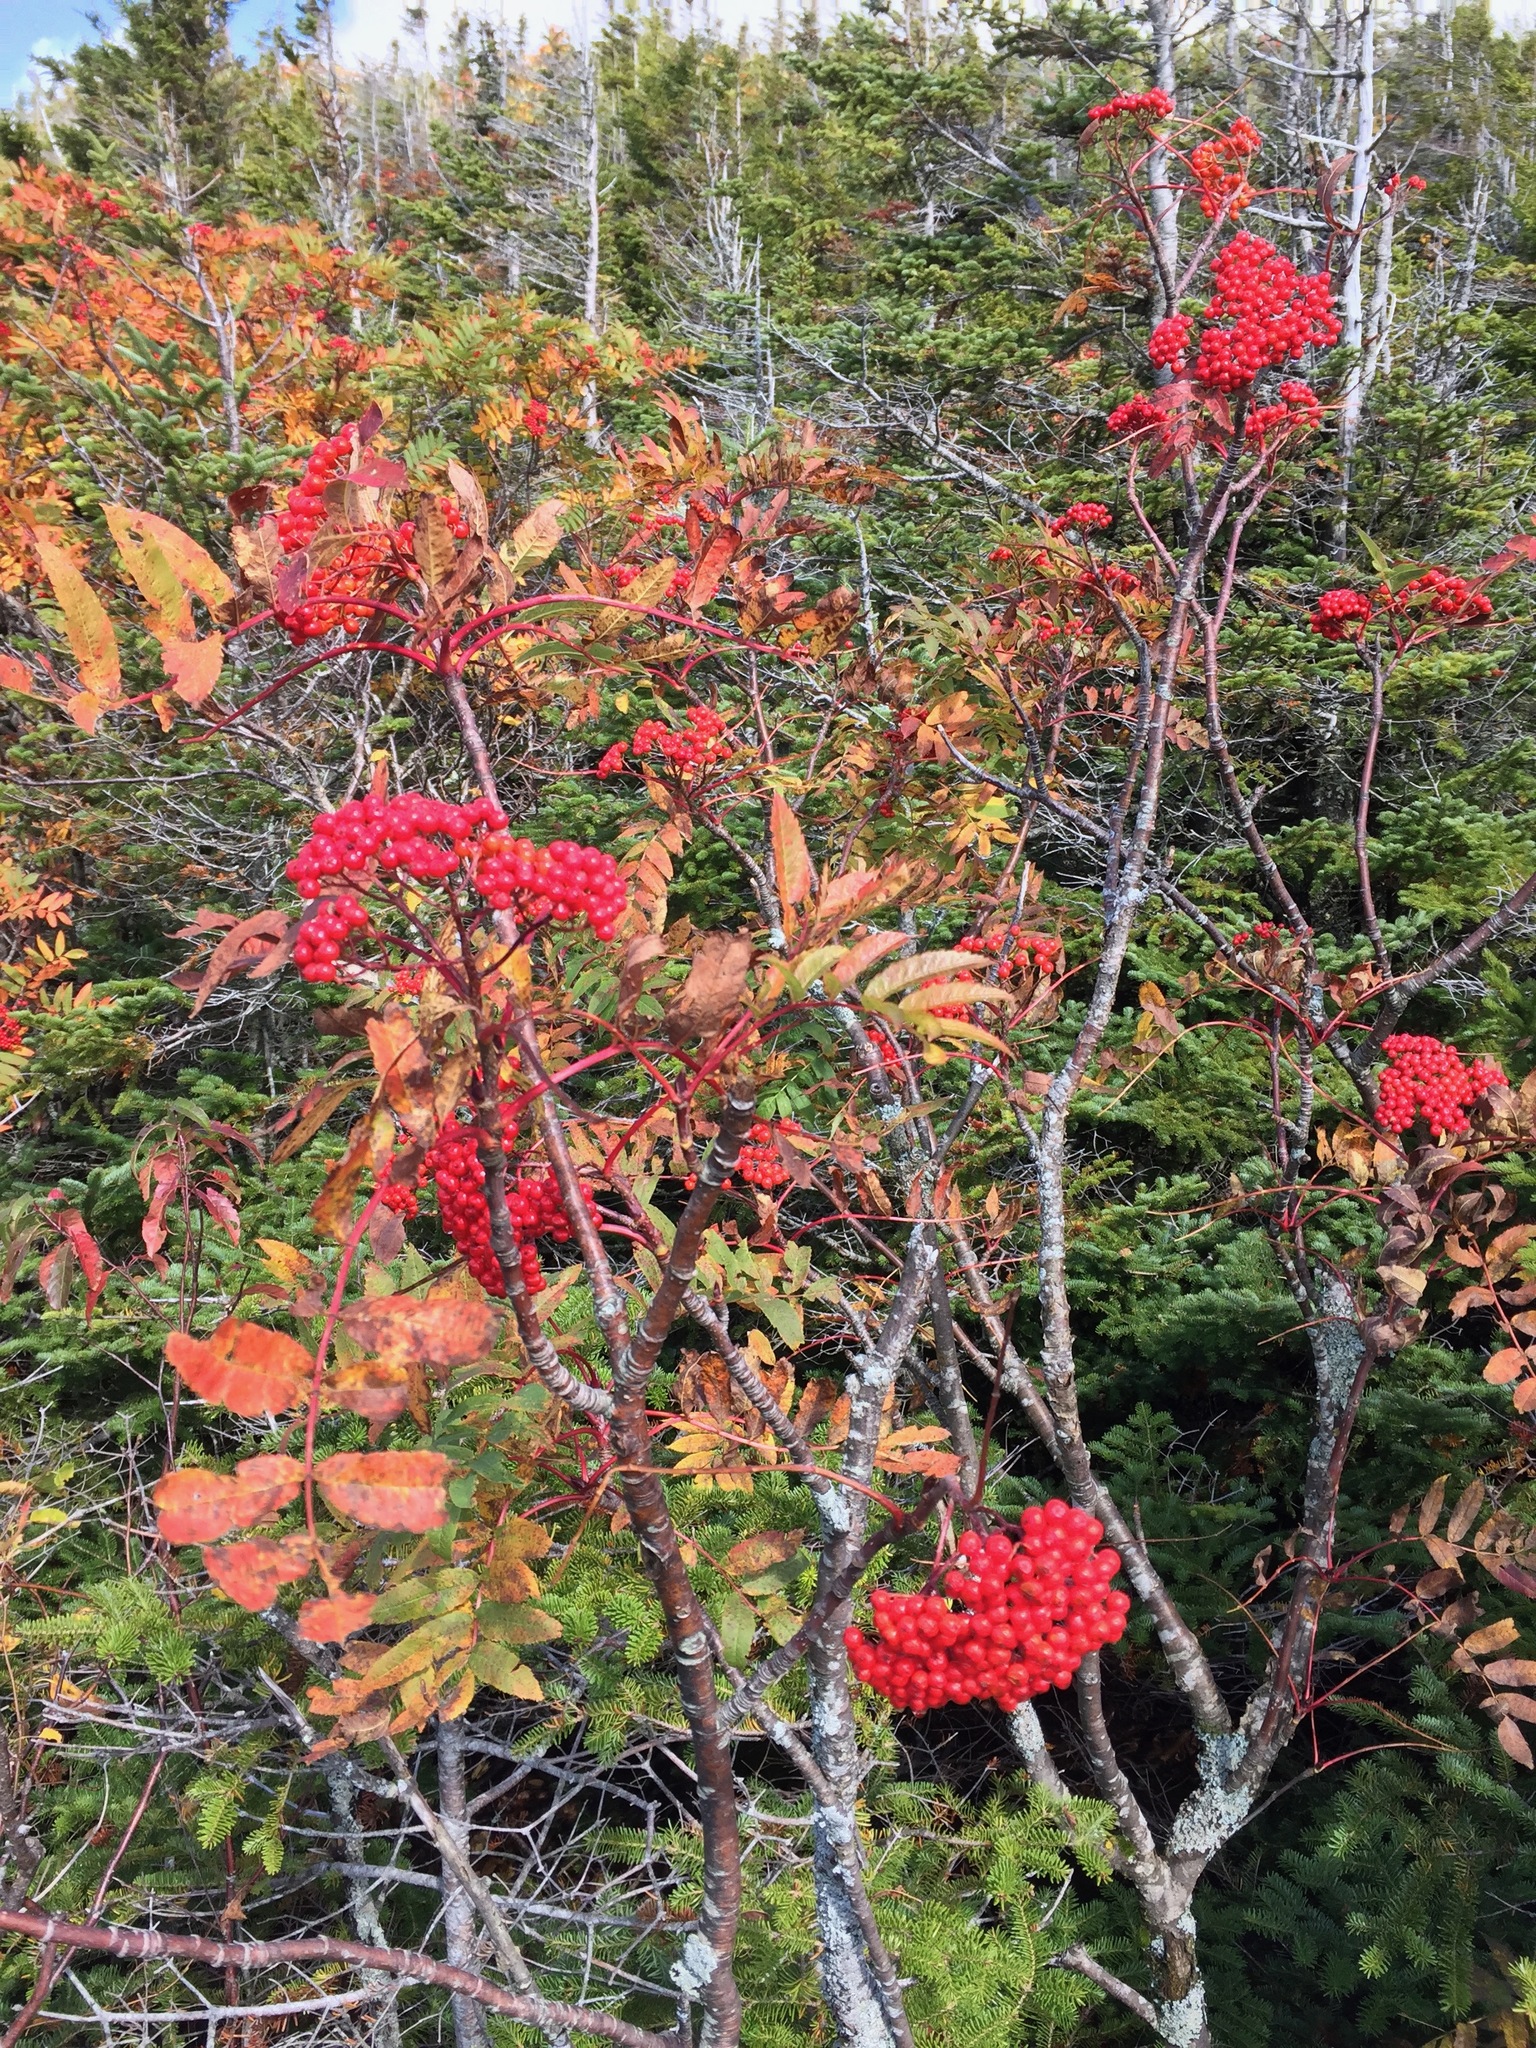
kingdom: Plantae
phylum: Tracheophyta
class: Magnoliopsida
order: Rosales
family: Rosaceae
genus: Sorbus
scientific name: Sorbus americana
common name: American mountain-ash
